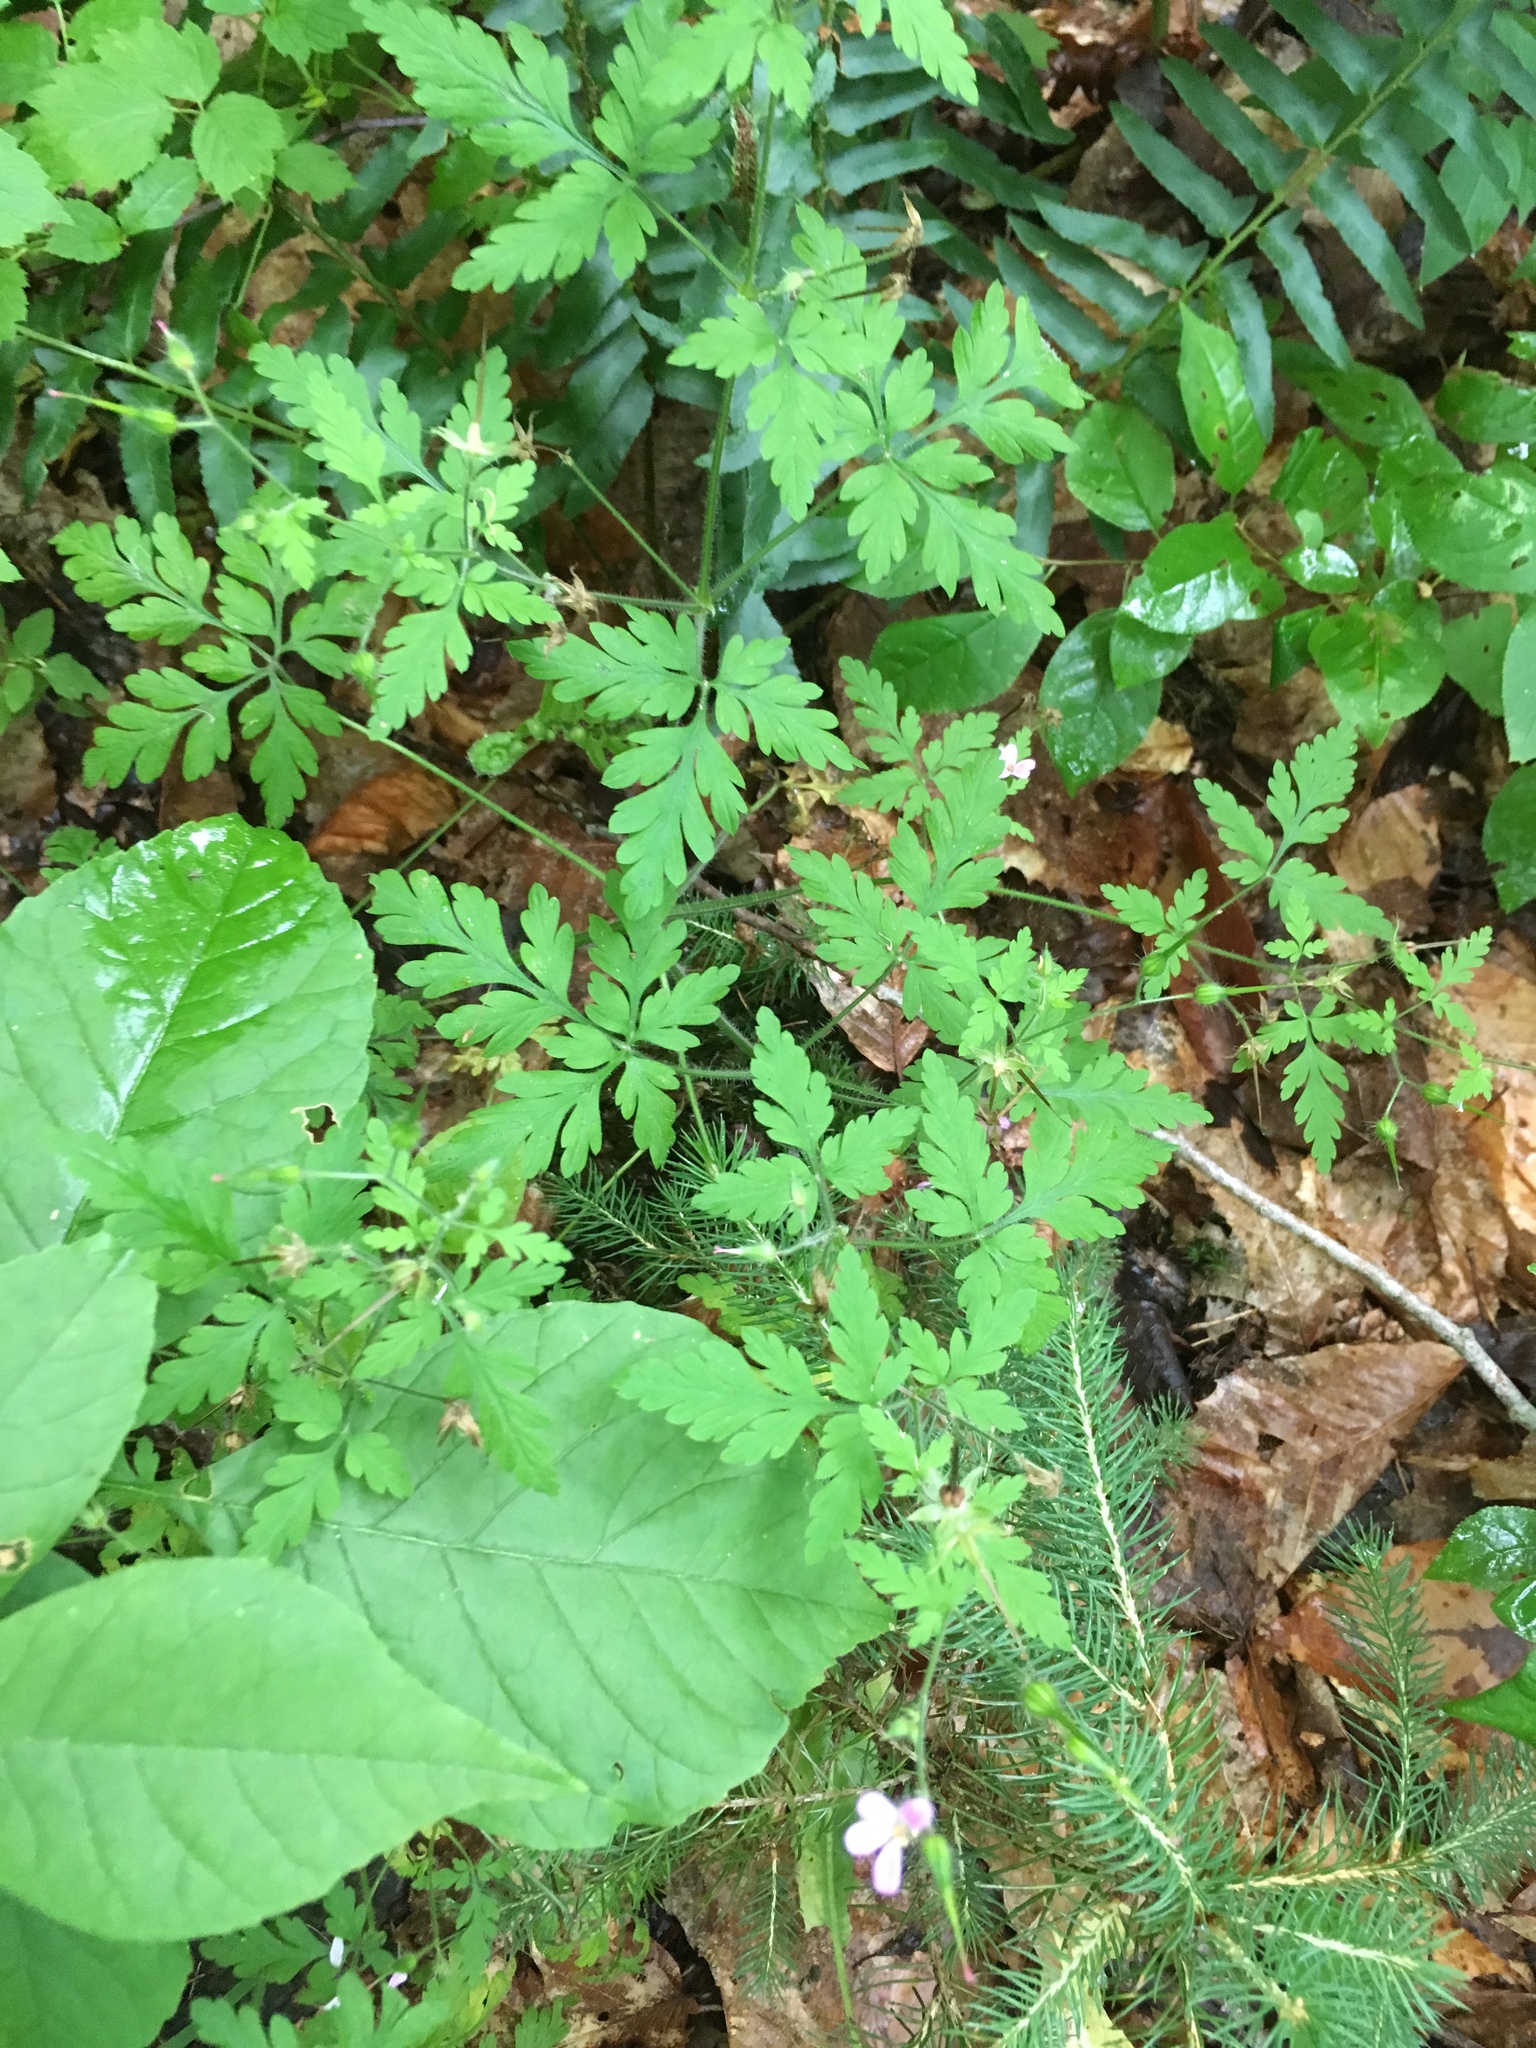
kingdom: Plantae
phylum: Tracheophyta
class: Magnoliopsida
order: Geraniales
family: Geraniaceae
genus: Geranium
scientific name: Geranium robertianum
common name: Herb-robert
